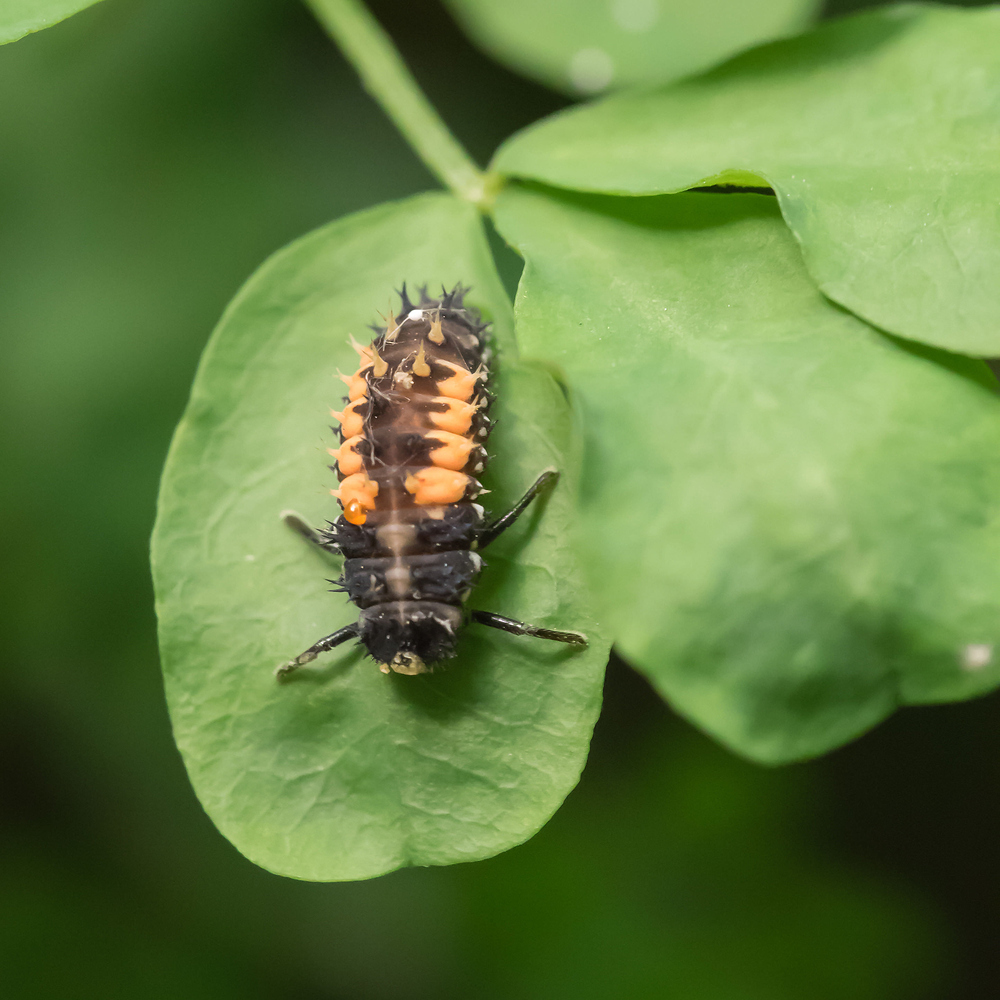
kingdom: Animalia
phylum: Arthropoda
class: Insecta
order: Coleoptera
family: Coccinellidae
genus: Harmonia
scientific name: Harmonia axyridis
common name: Harlequin ladybird
